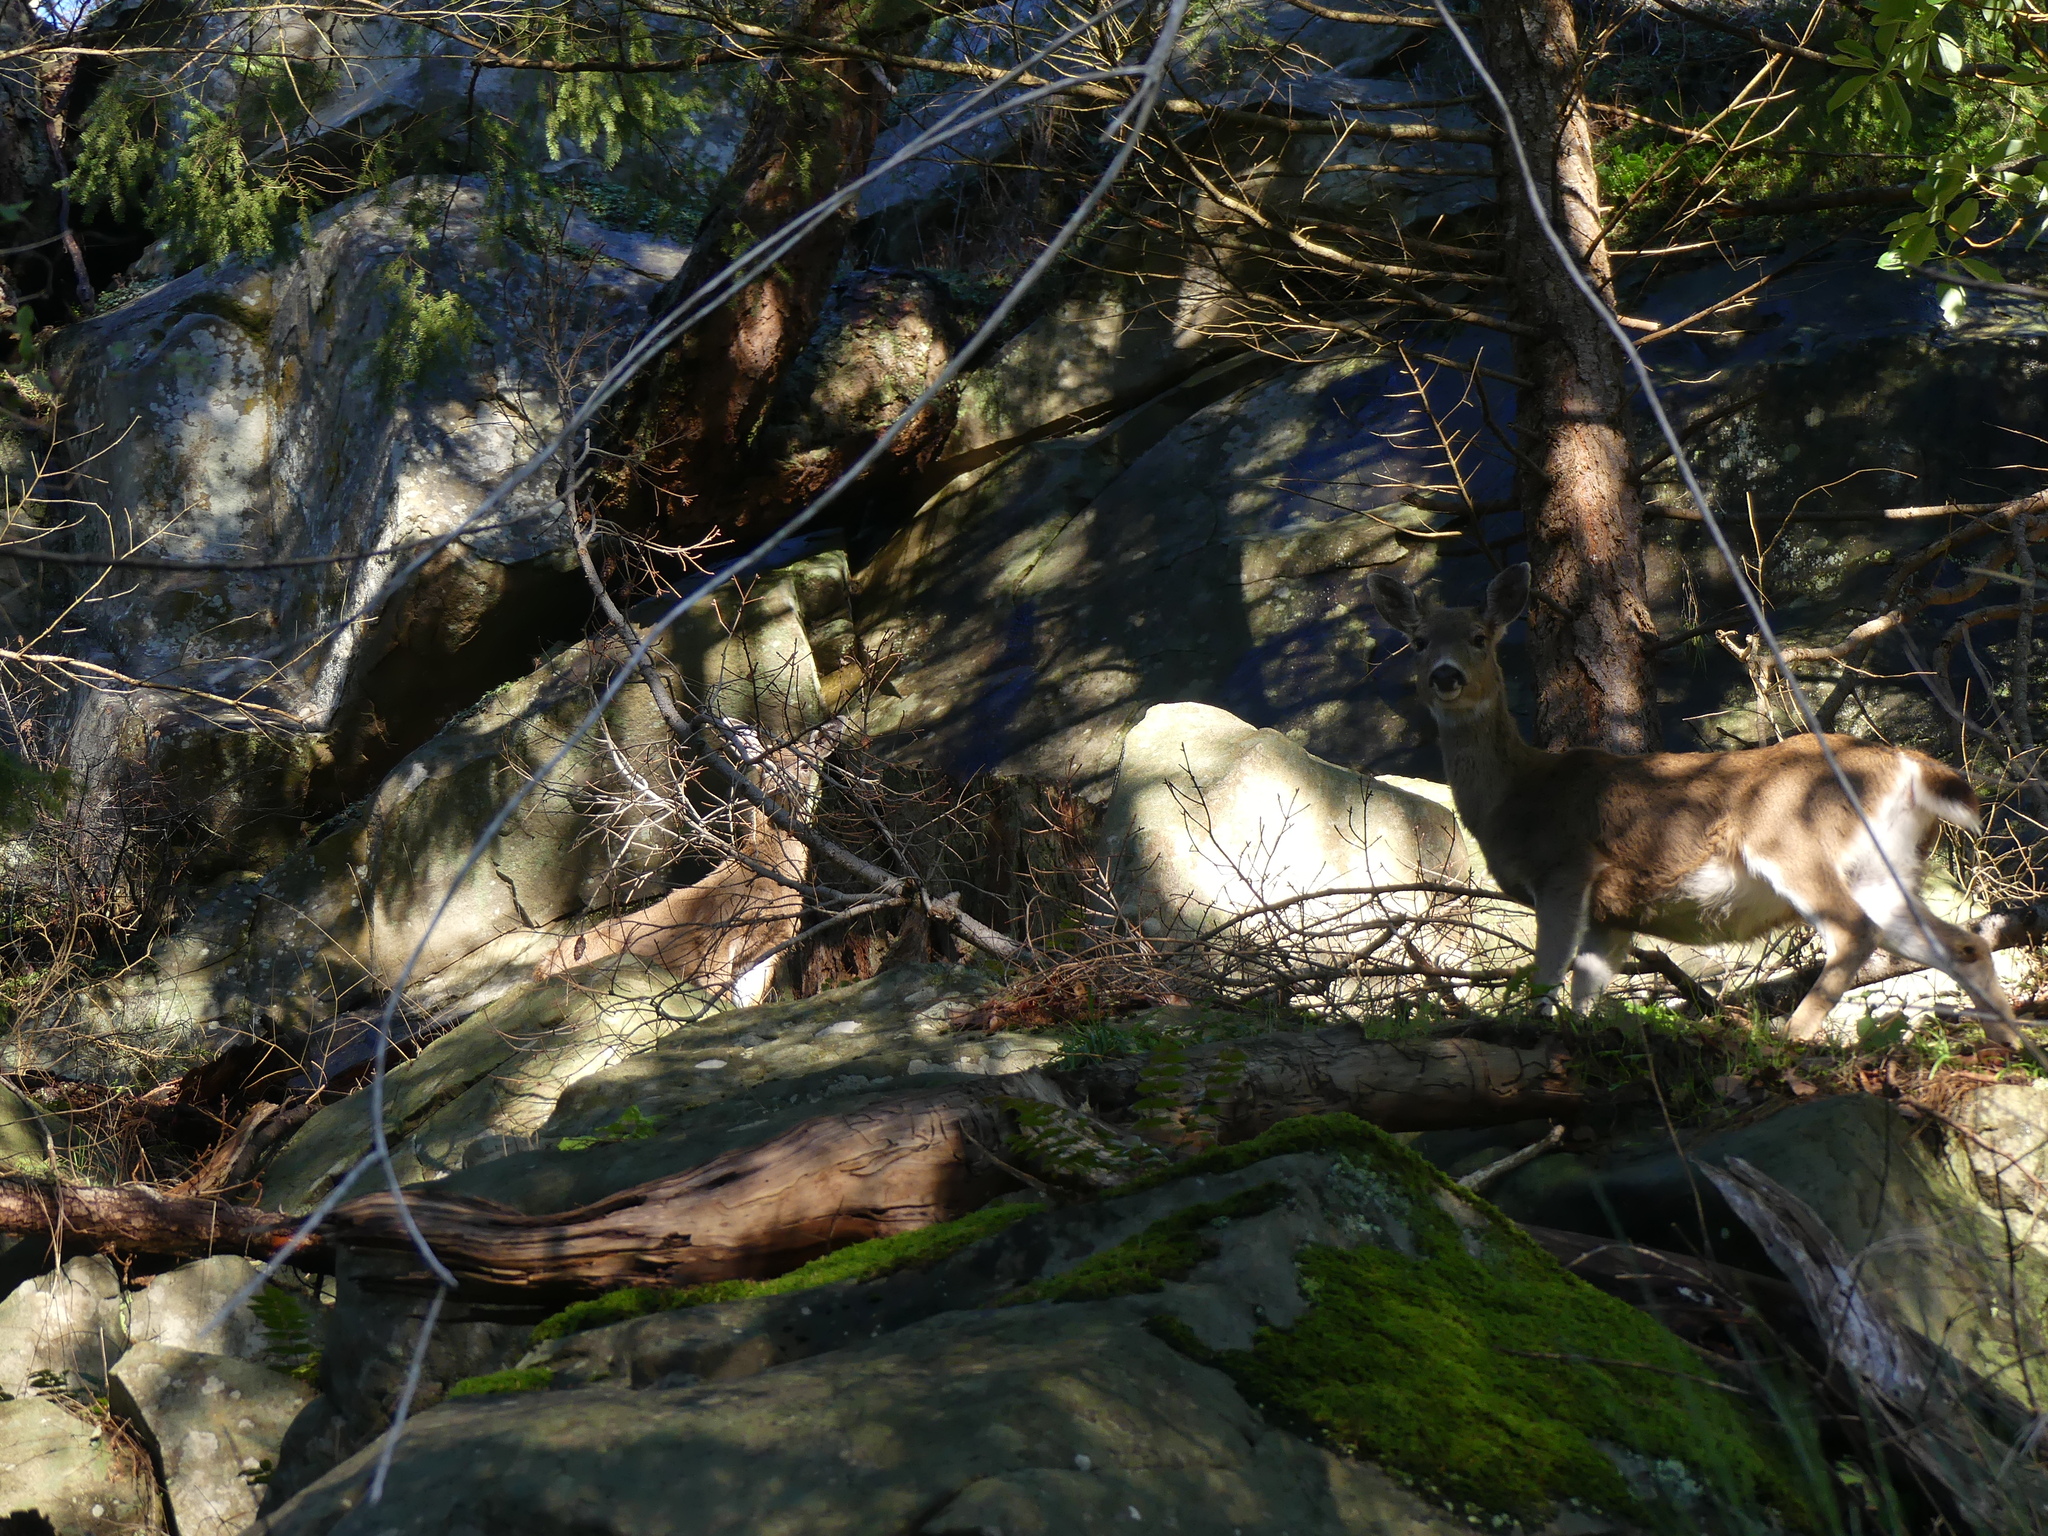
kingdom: Animalia
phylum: Chordata
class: Mammalia
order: Artiodactyla
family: Cervidae
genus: Odocoileus
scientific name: Odocoileus hemionus
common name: Mule deer
